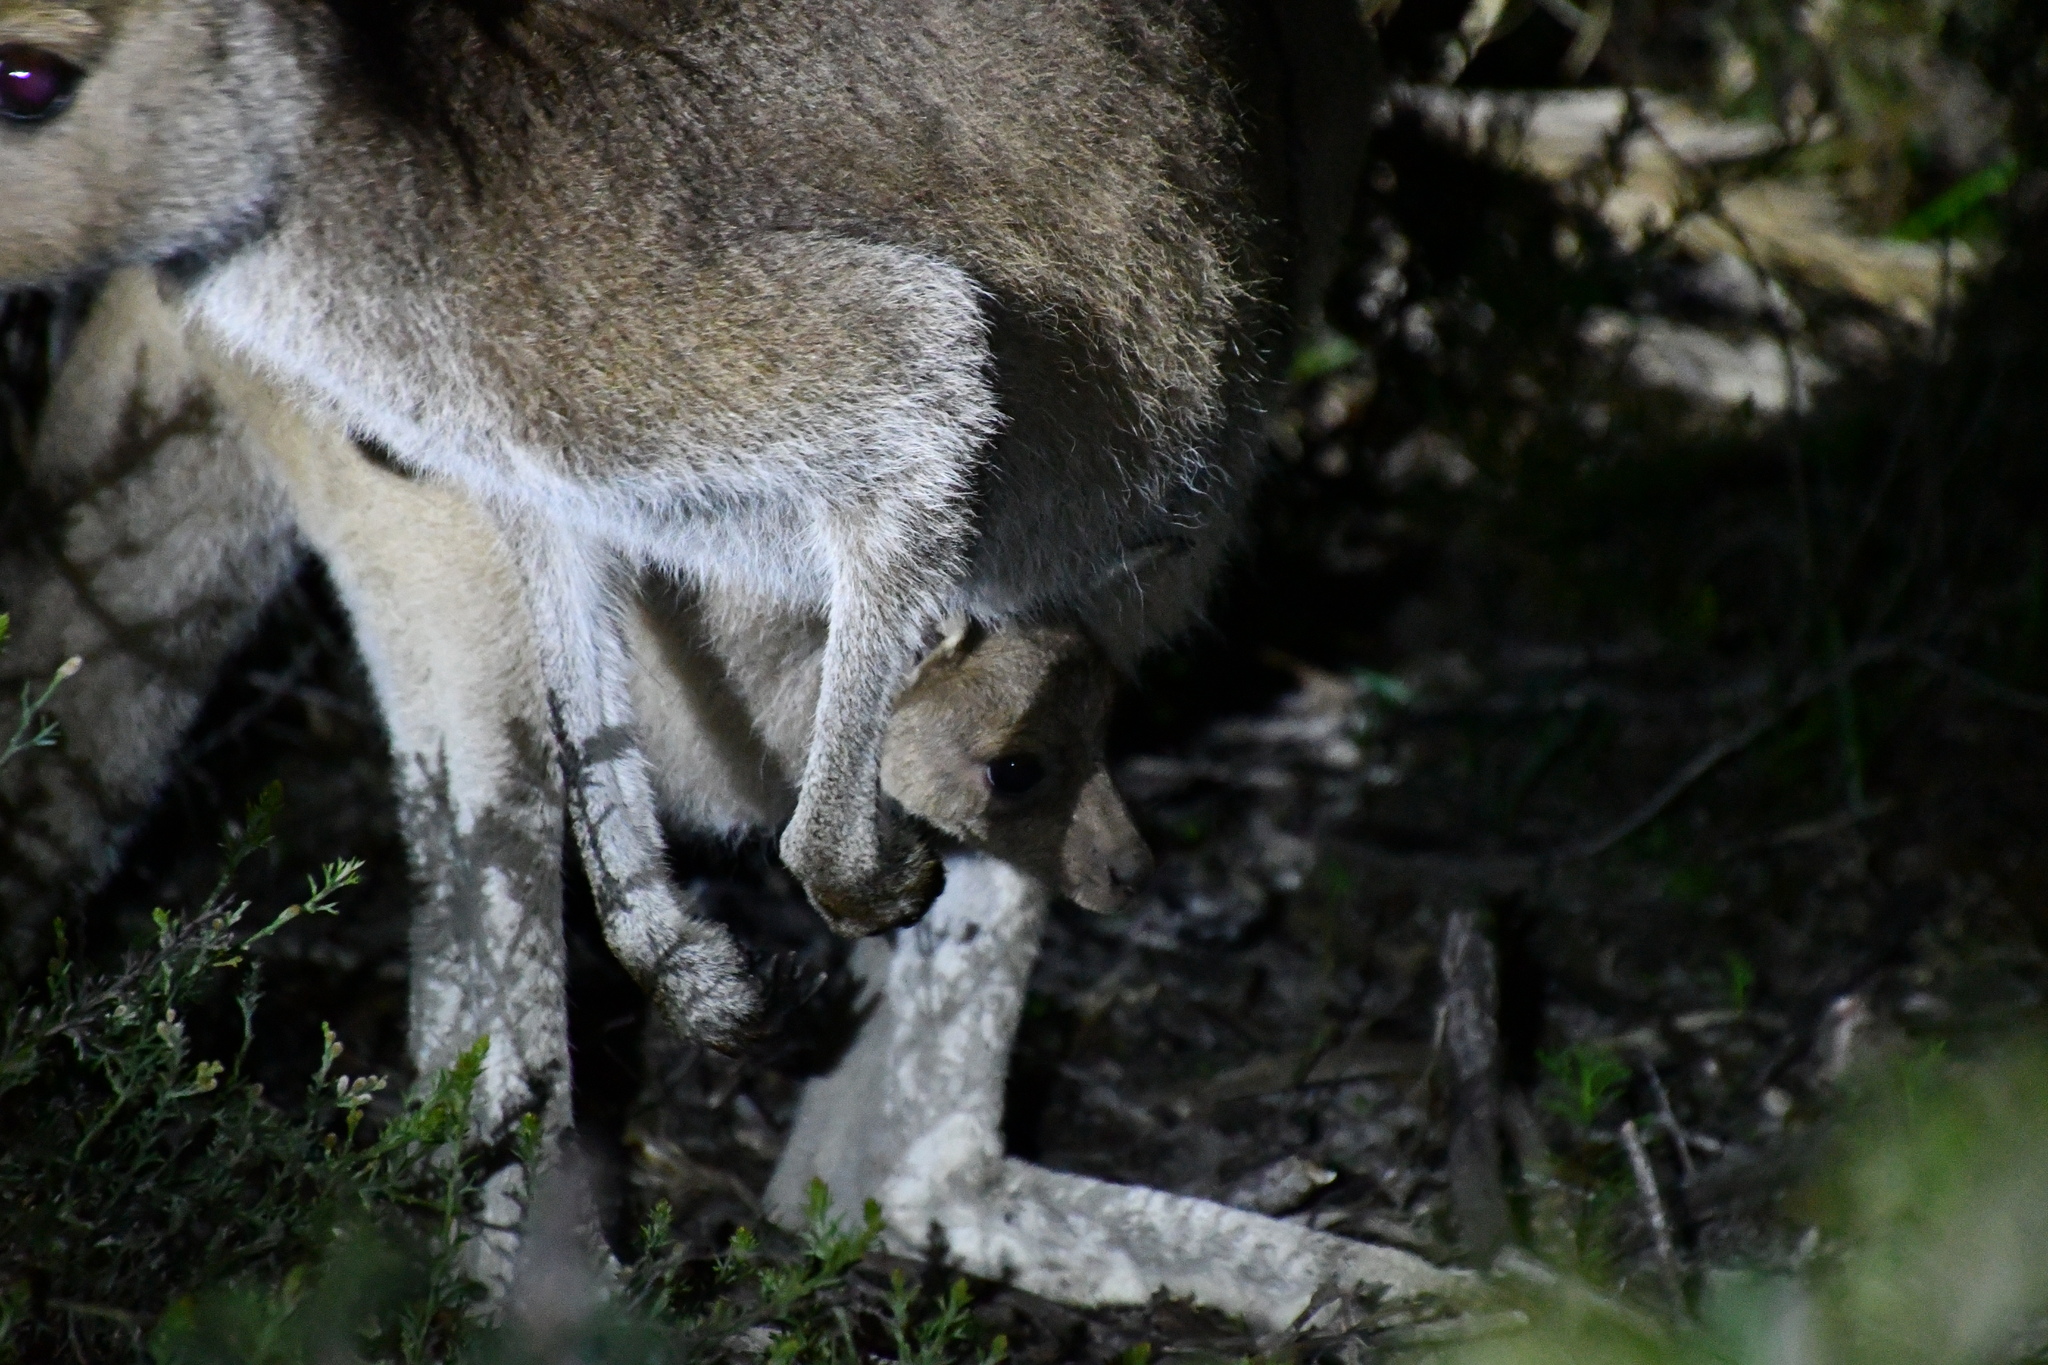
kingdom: Animalia
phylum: Chordata
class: Mammalia
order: Diprotodontia
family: Macropodidae
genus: Macropus
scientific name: Macropus fuliginosus
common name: Western grey kangaroo
